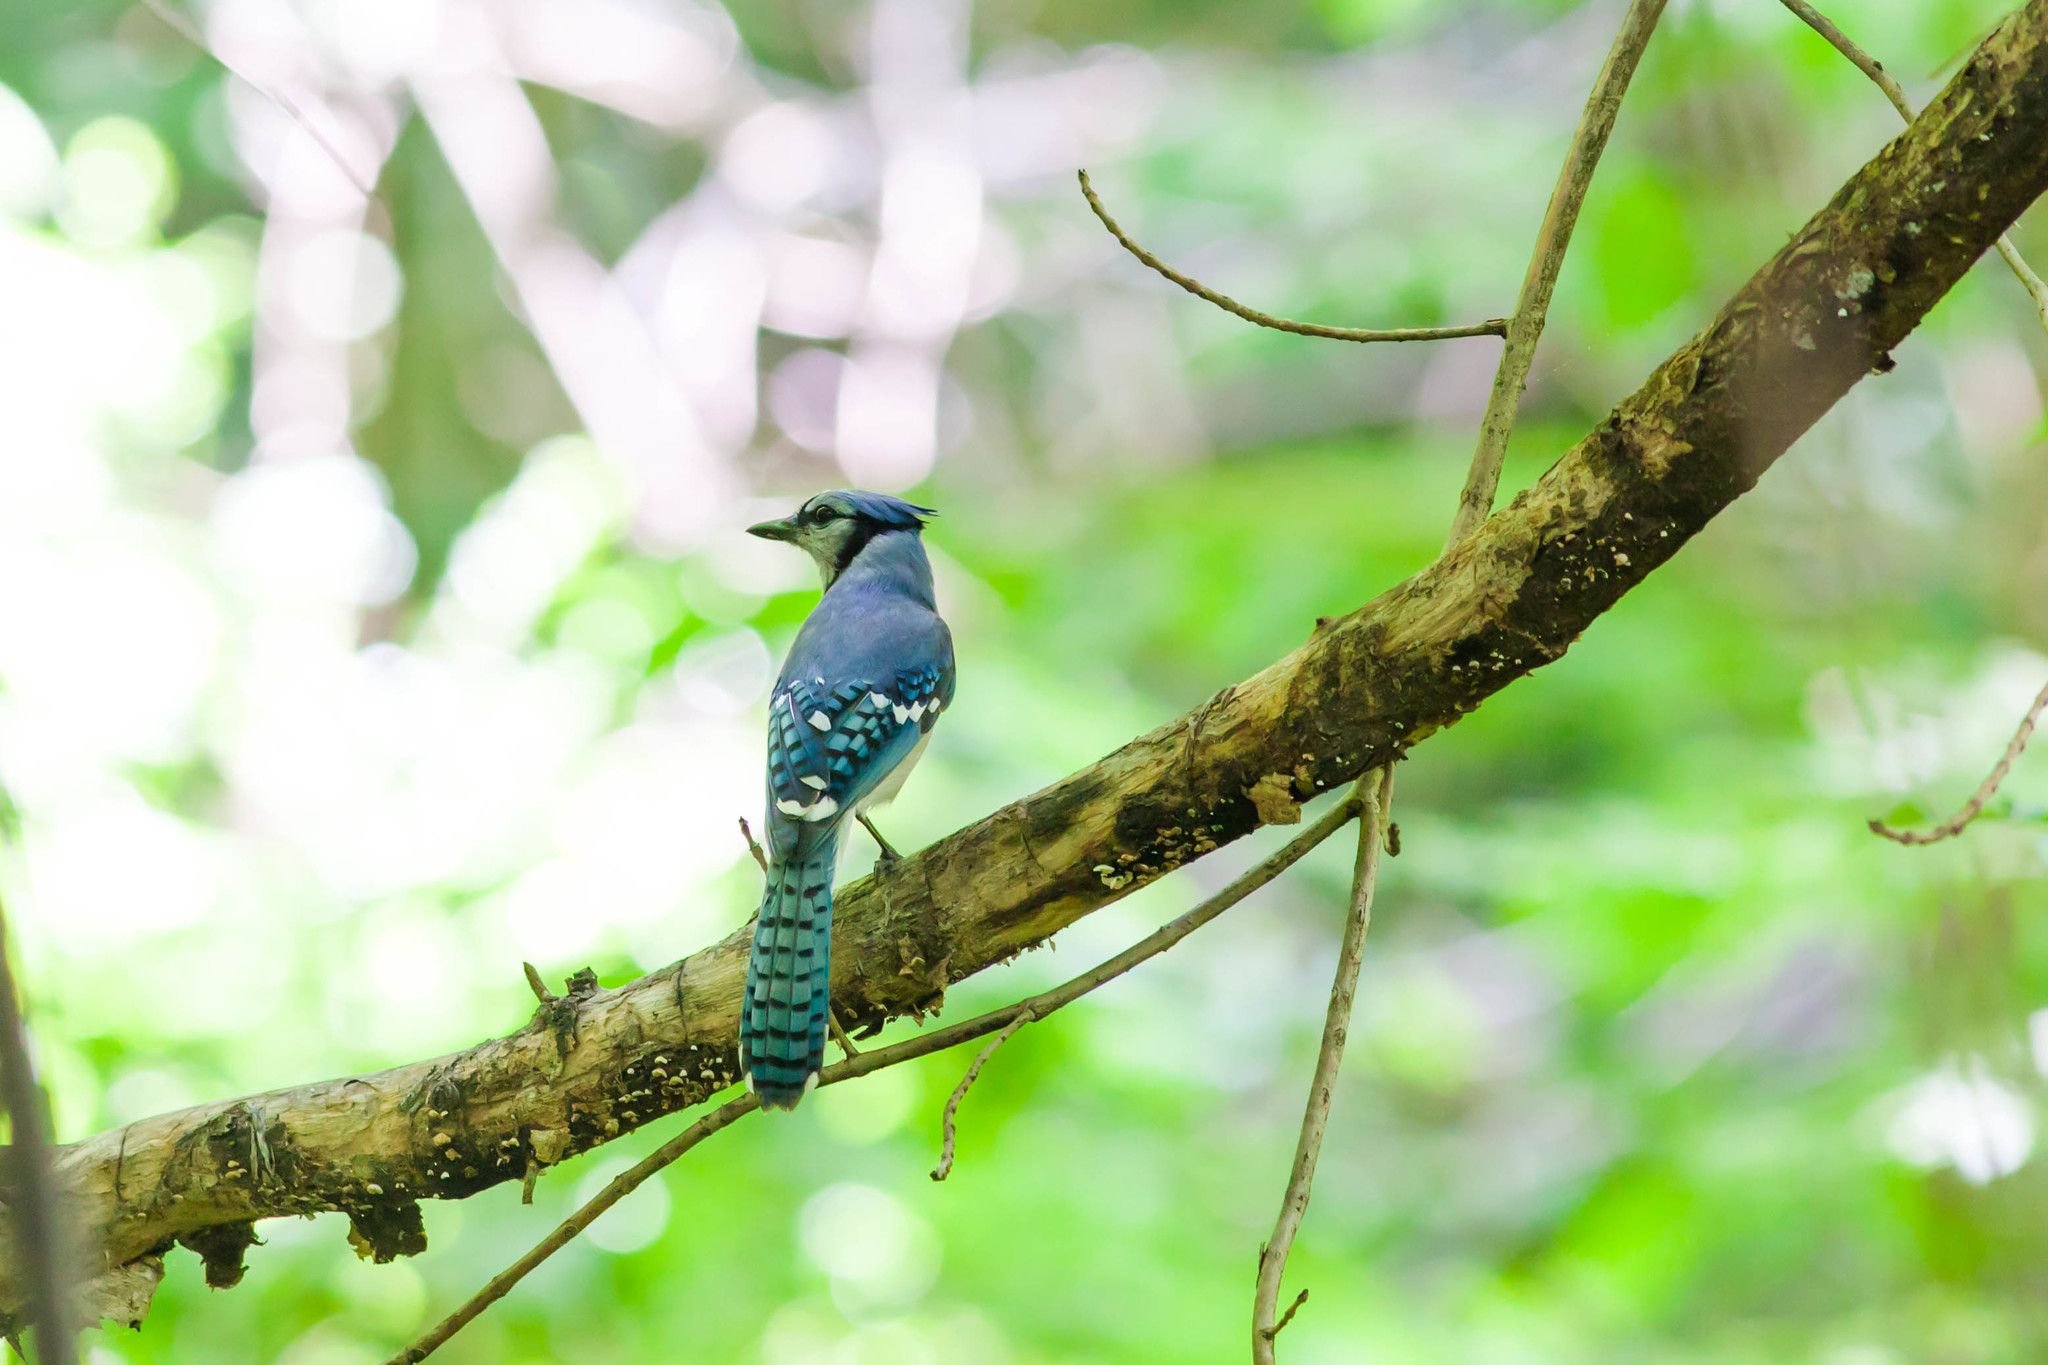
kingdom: Animalia
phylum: Chordata
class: Aves
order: Passeriformes
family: Corvidae
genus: Cyanocitta
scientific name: Cyanocitta cristata
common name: Blue jay
